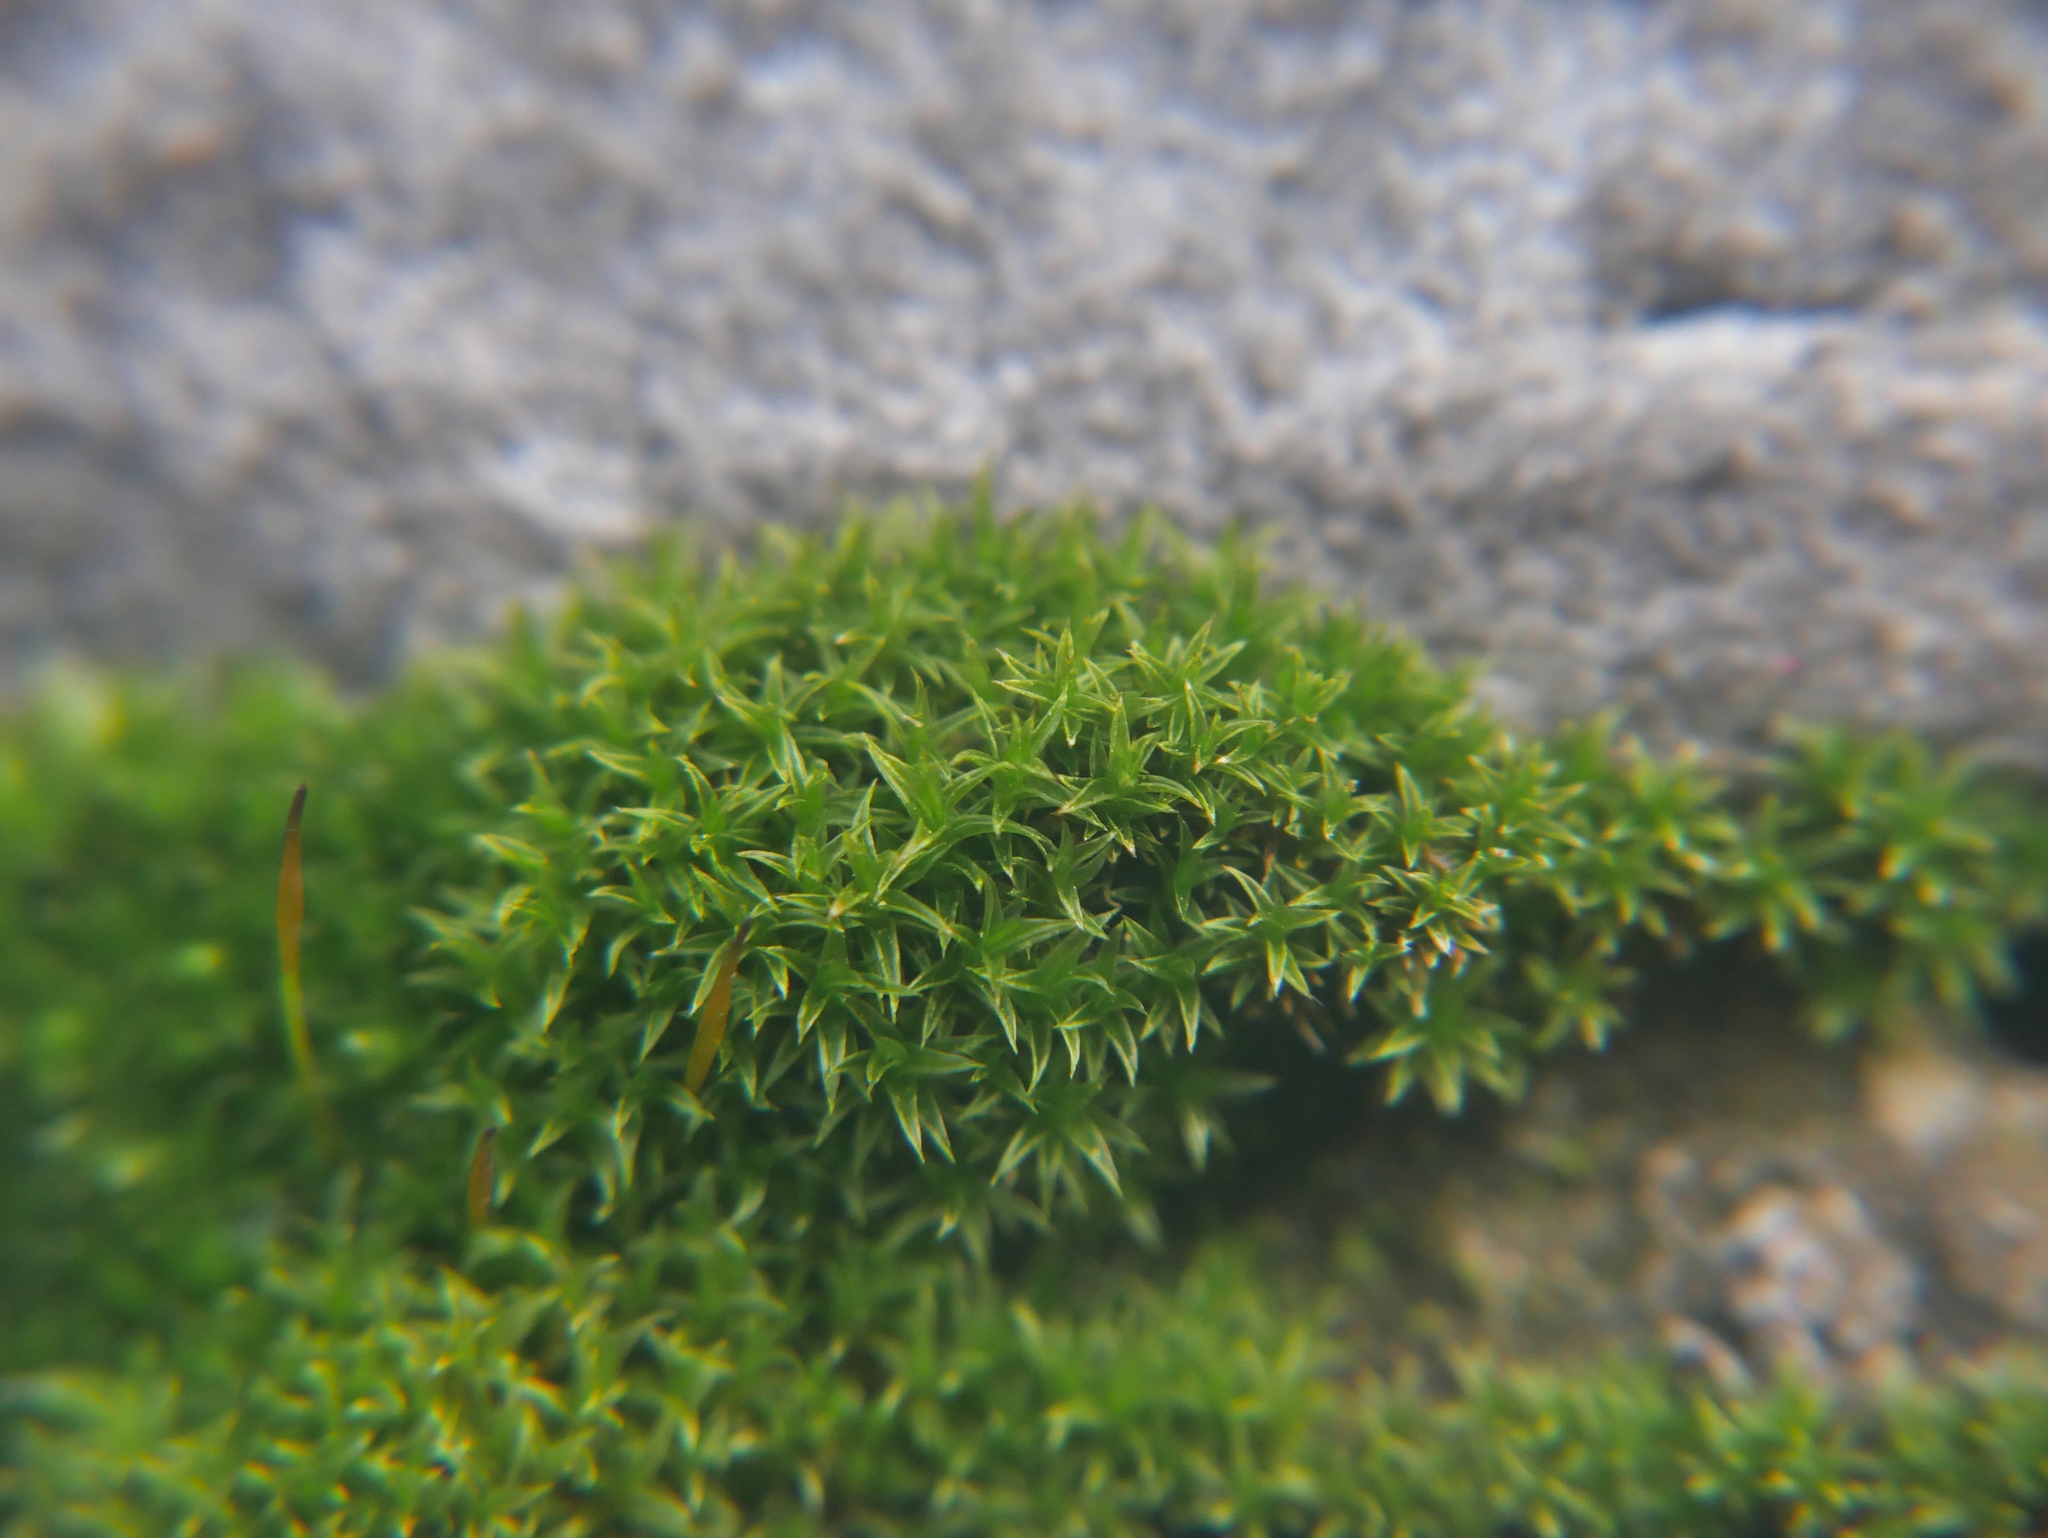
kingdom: Plantae
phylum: Bryophyta
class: Bryopsida
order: Dicranales
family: Ditrichaceae
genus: Ceratodon
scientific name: Ceratodon purpureus
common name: Redshank
